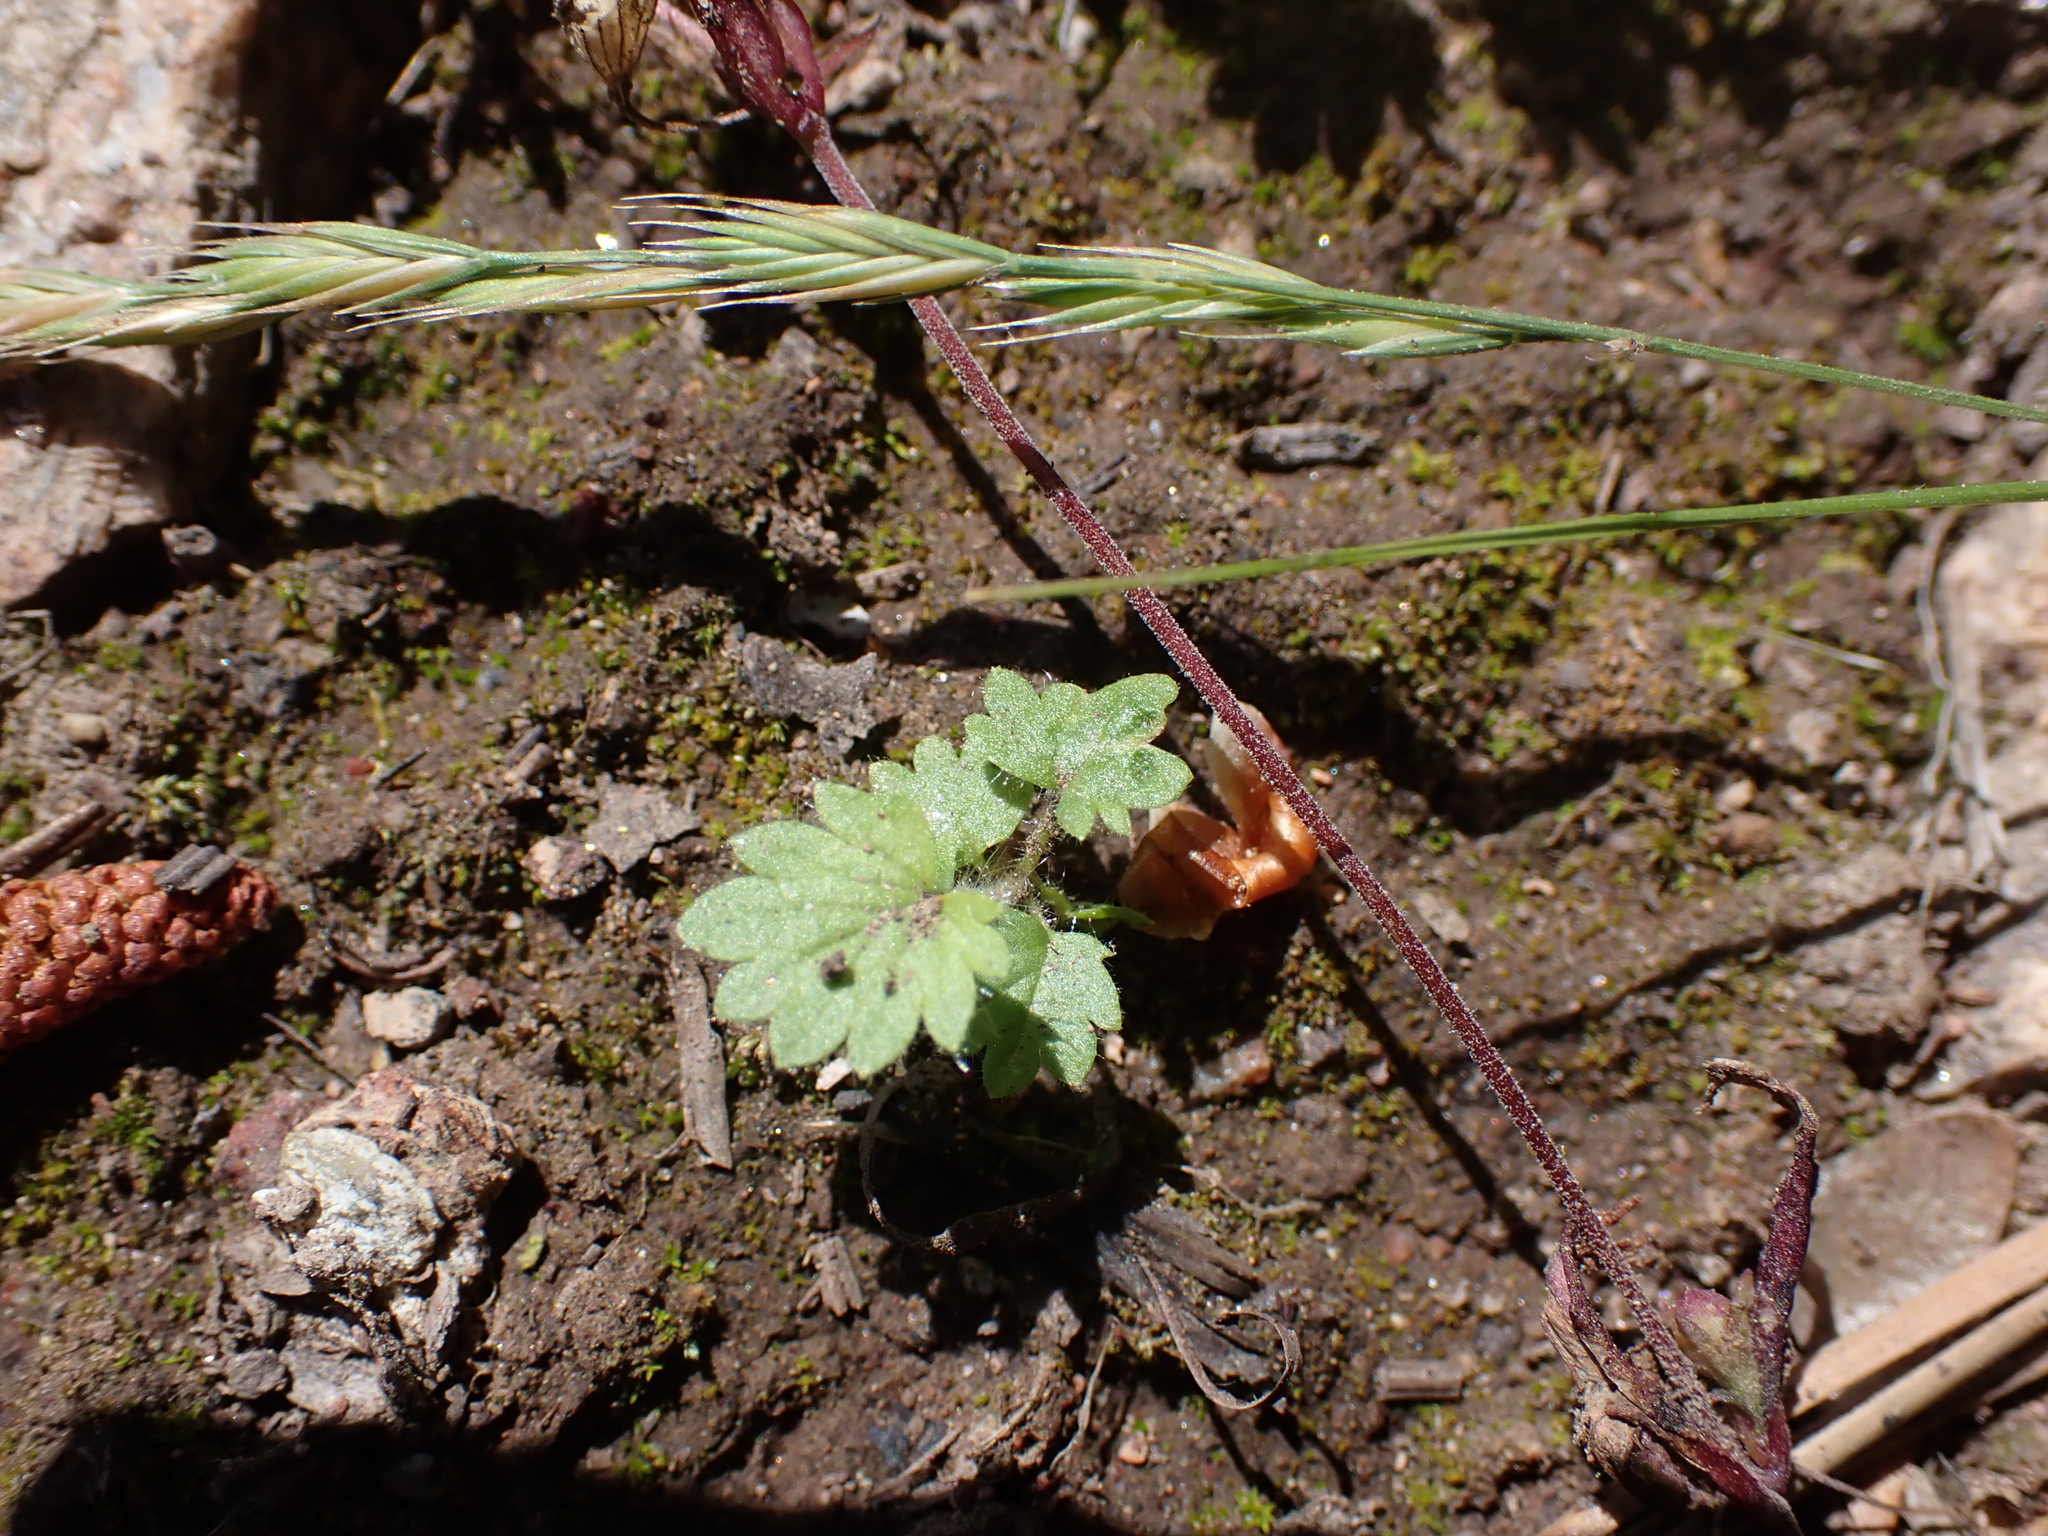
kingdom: Plantae
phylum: Tracheophyta
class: Magnoliopsida
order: Boraginales
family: Hydrophyllaceae
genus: Hydrophyllum
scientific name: Hydrophyllum capitatum
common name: Woollen-breeches
